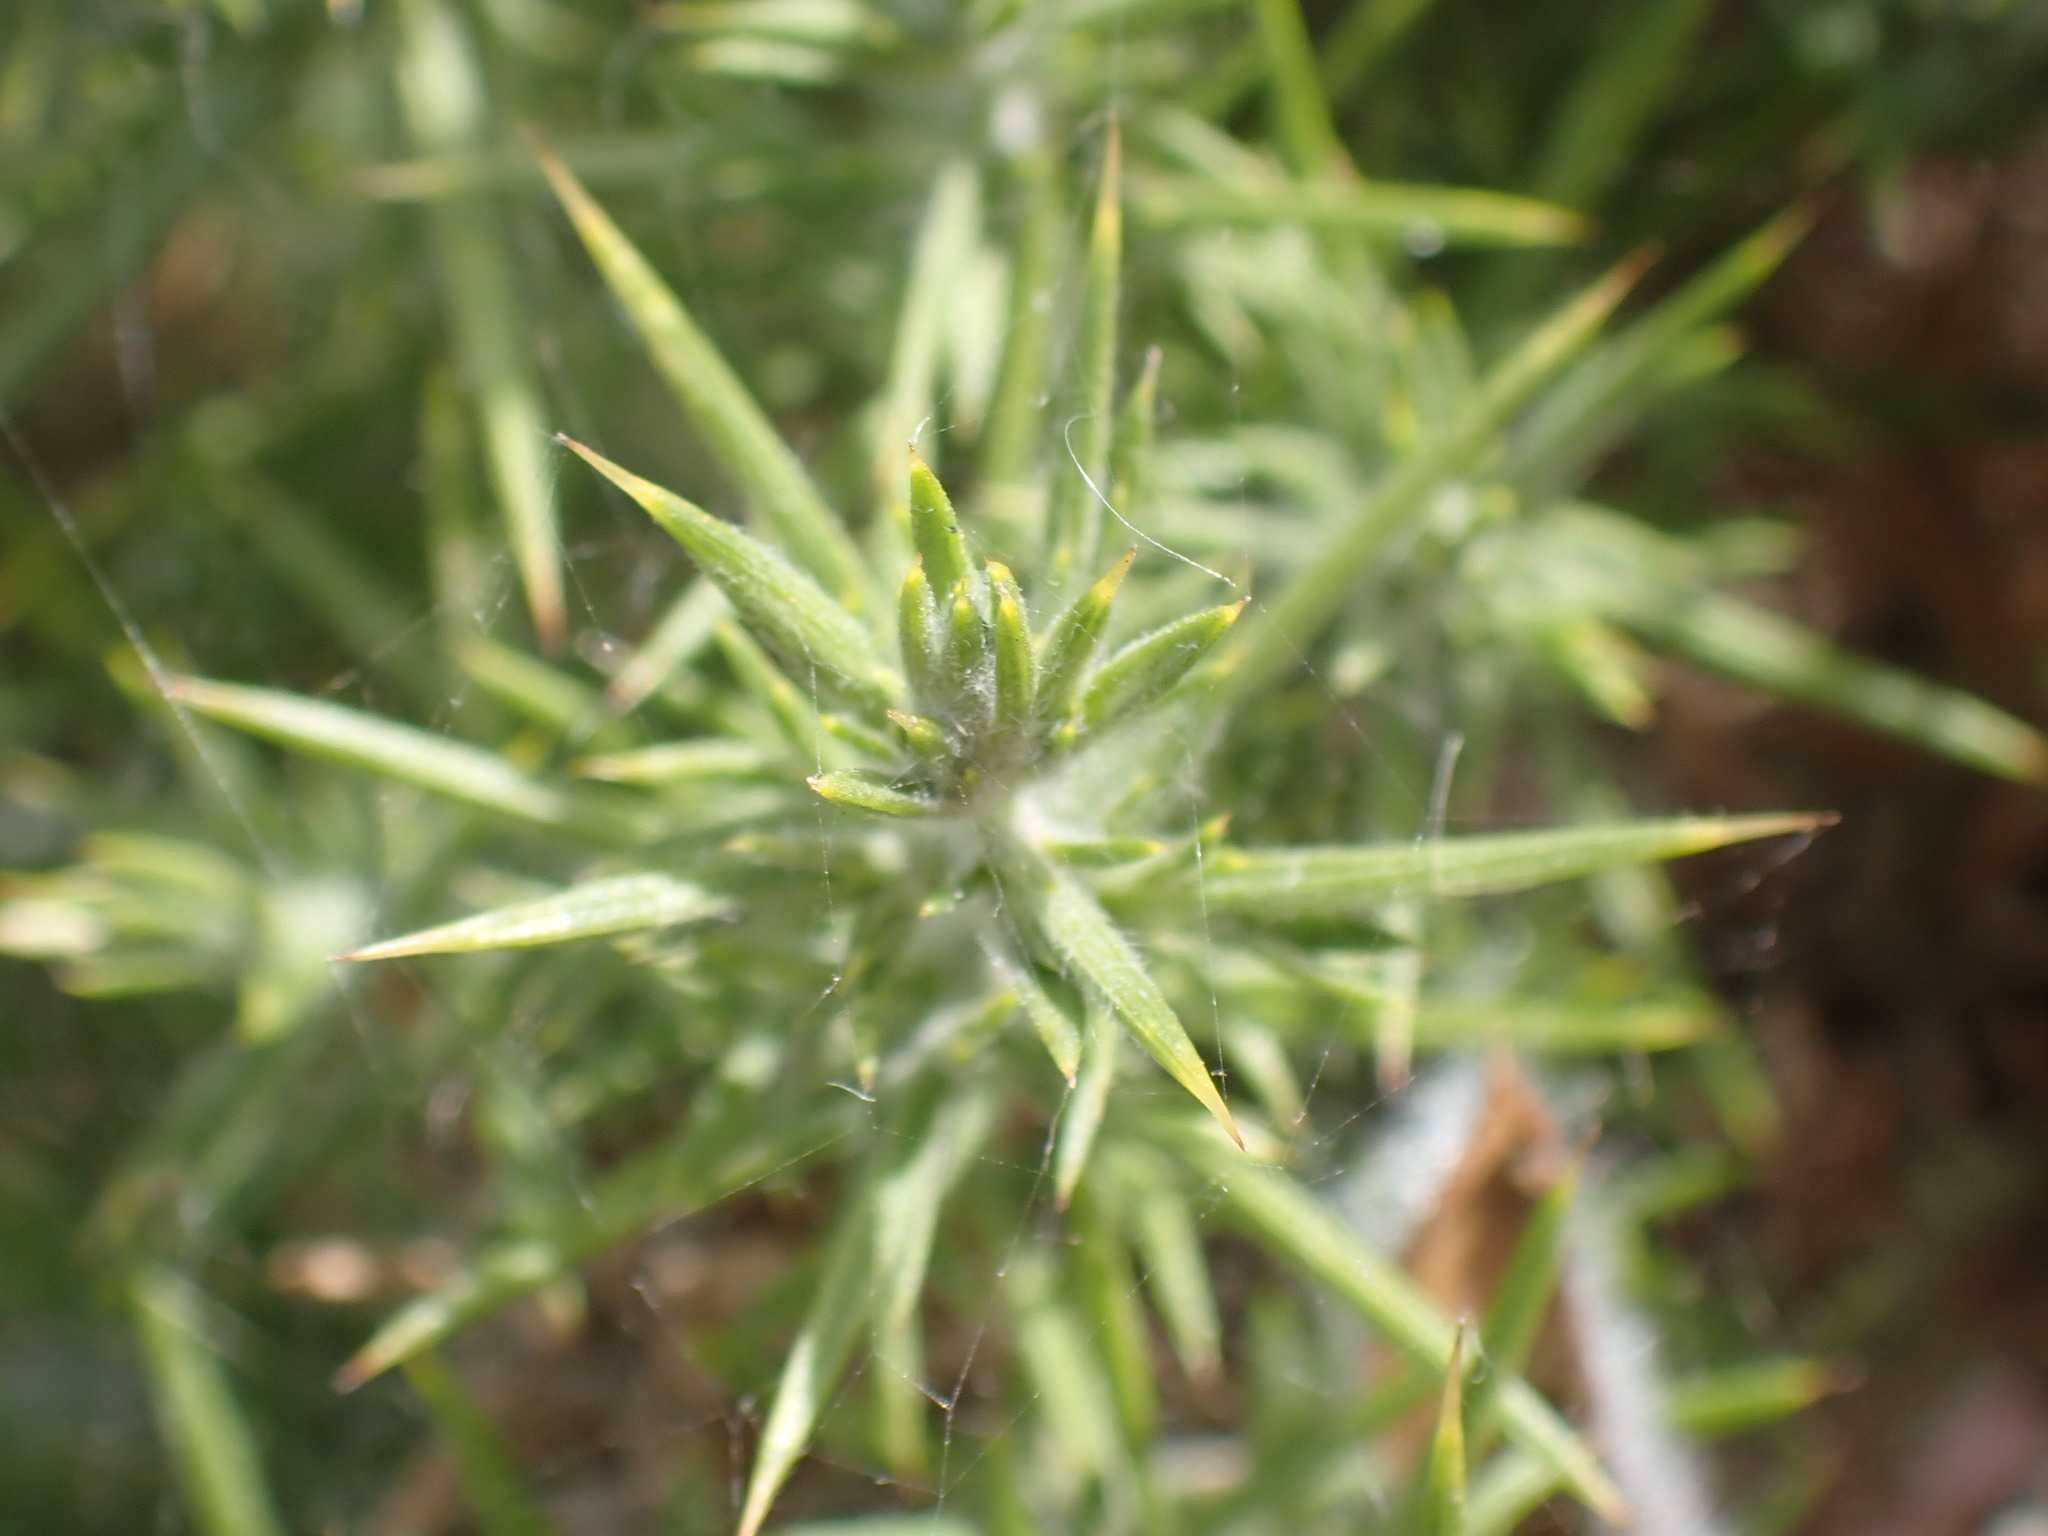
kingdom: Plantae
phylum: Tracheophyta
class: Magnoliopsida
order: Fabales
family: Fabaceae
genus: Ulex
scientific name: Ulex europaeus
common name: Common gorse
